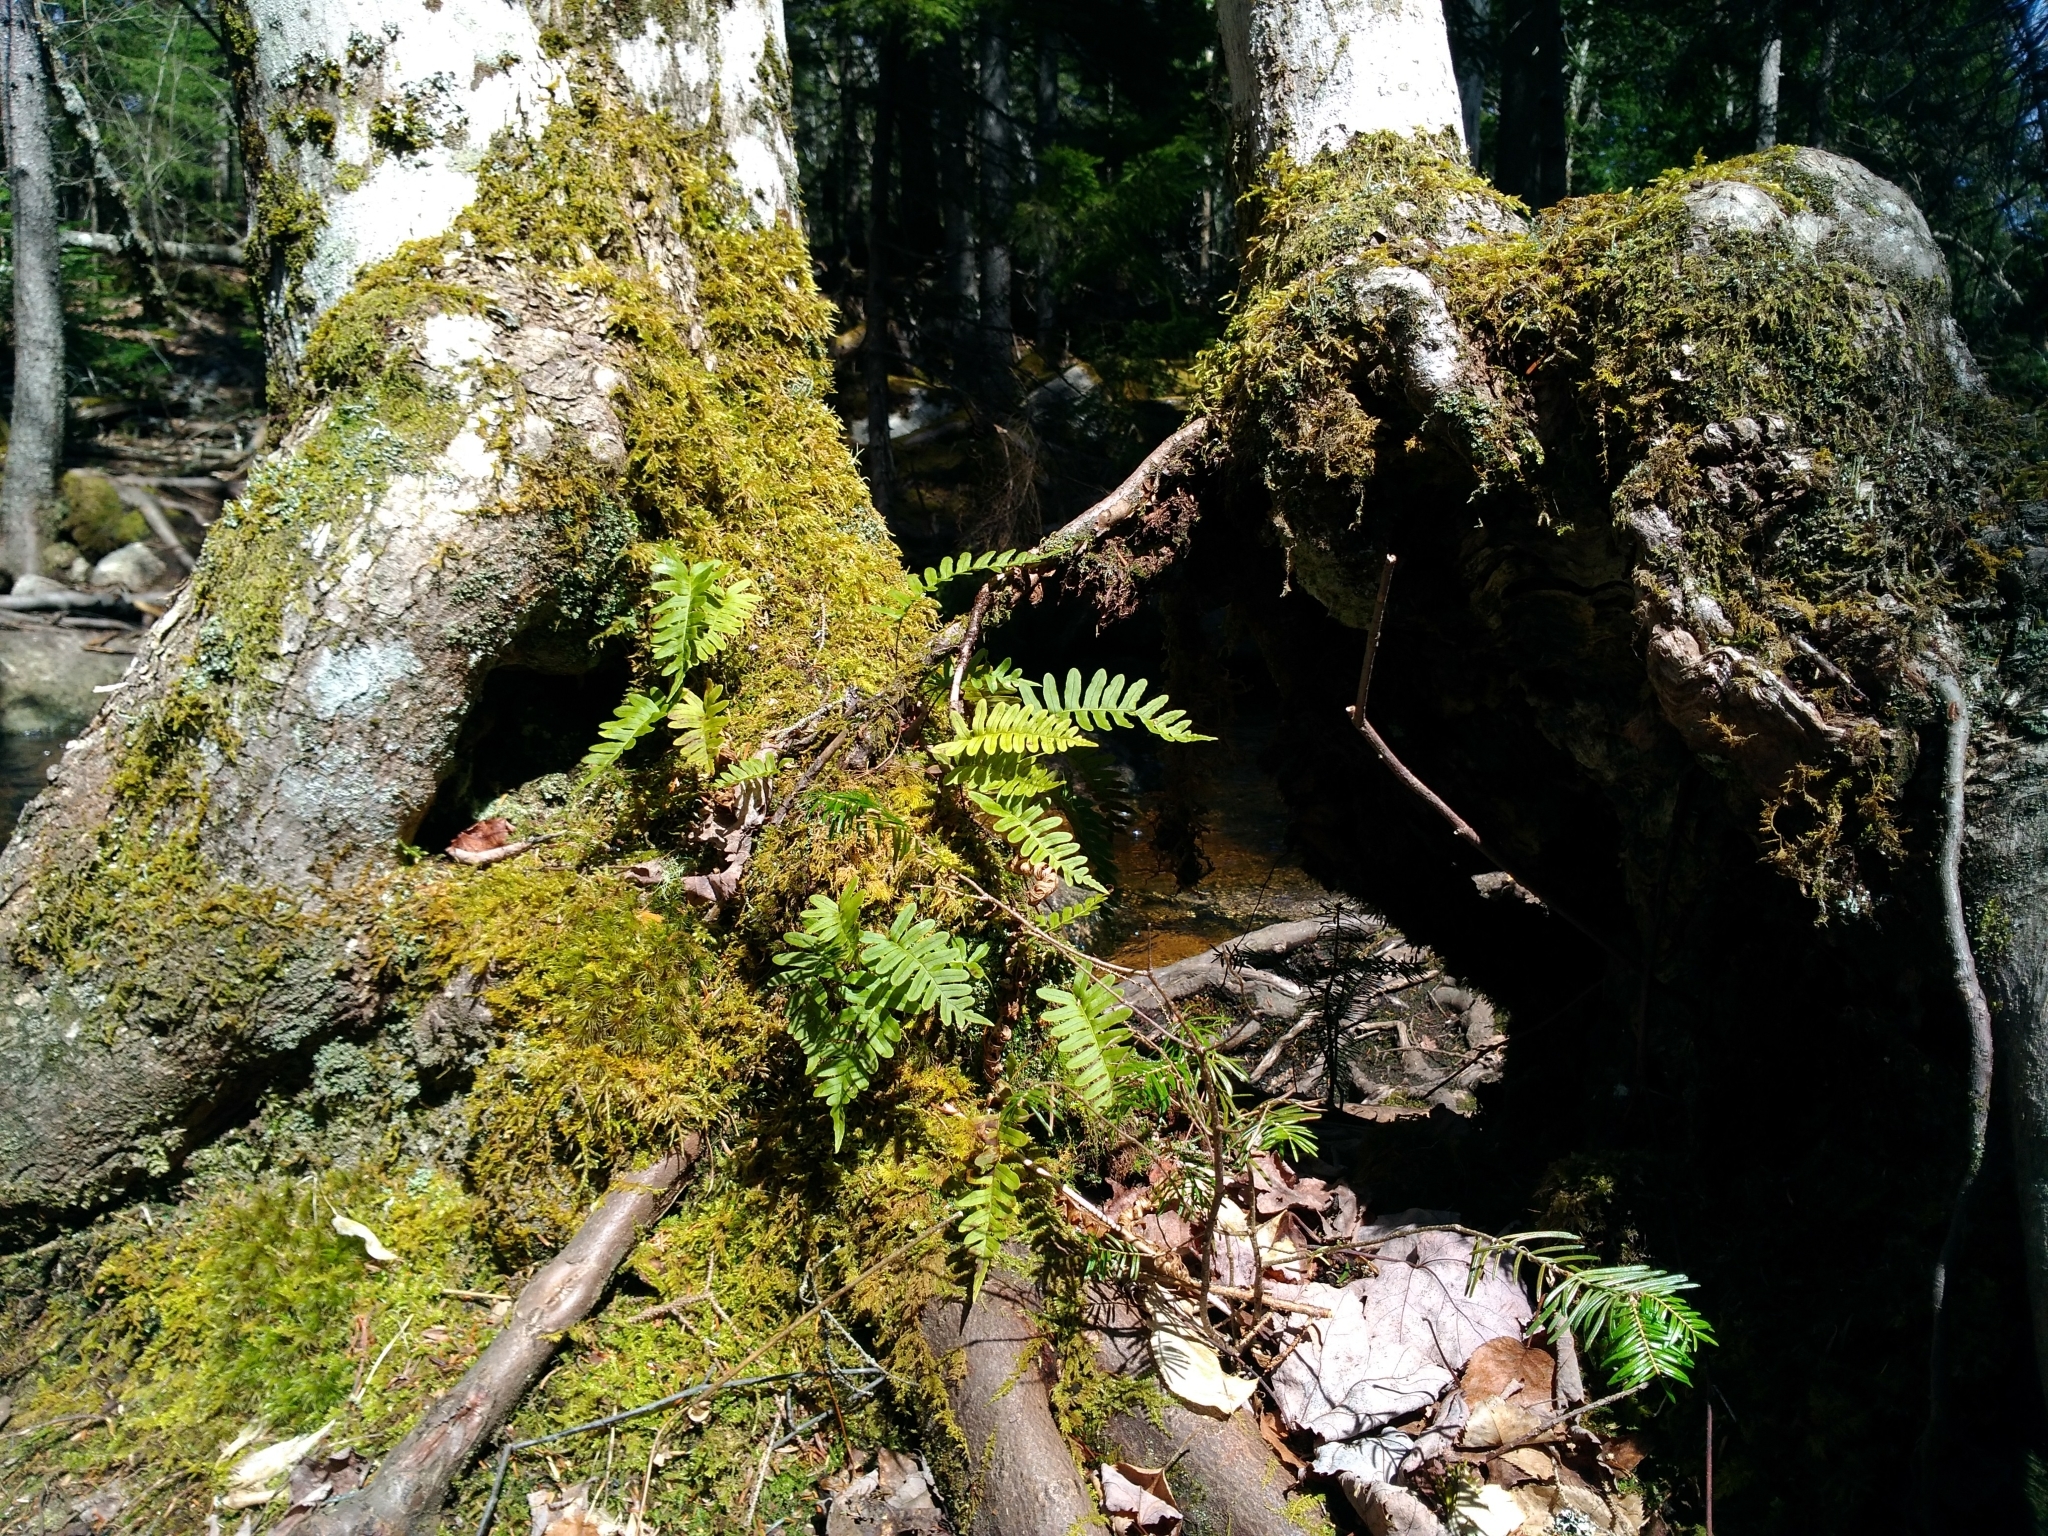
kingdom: Plantae
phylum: Tracheophyta
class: Polypodiopsida
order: Polypodiales
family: Polypodiaceae
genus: Polypodium
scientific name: Polypodium virginianum
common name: American wall fern
